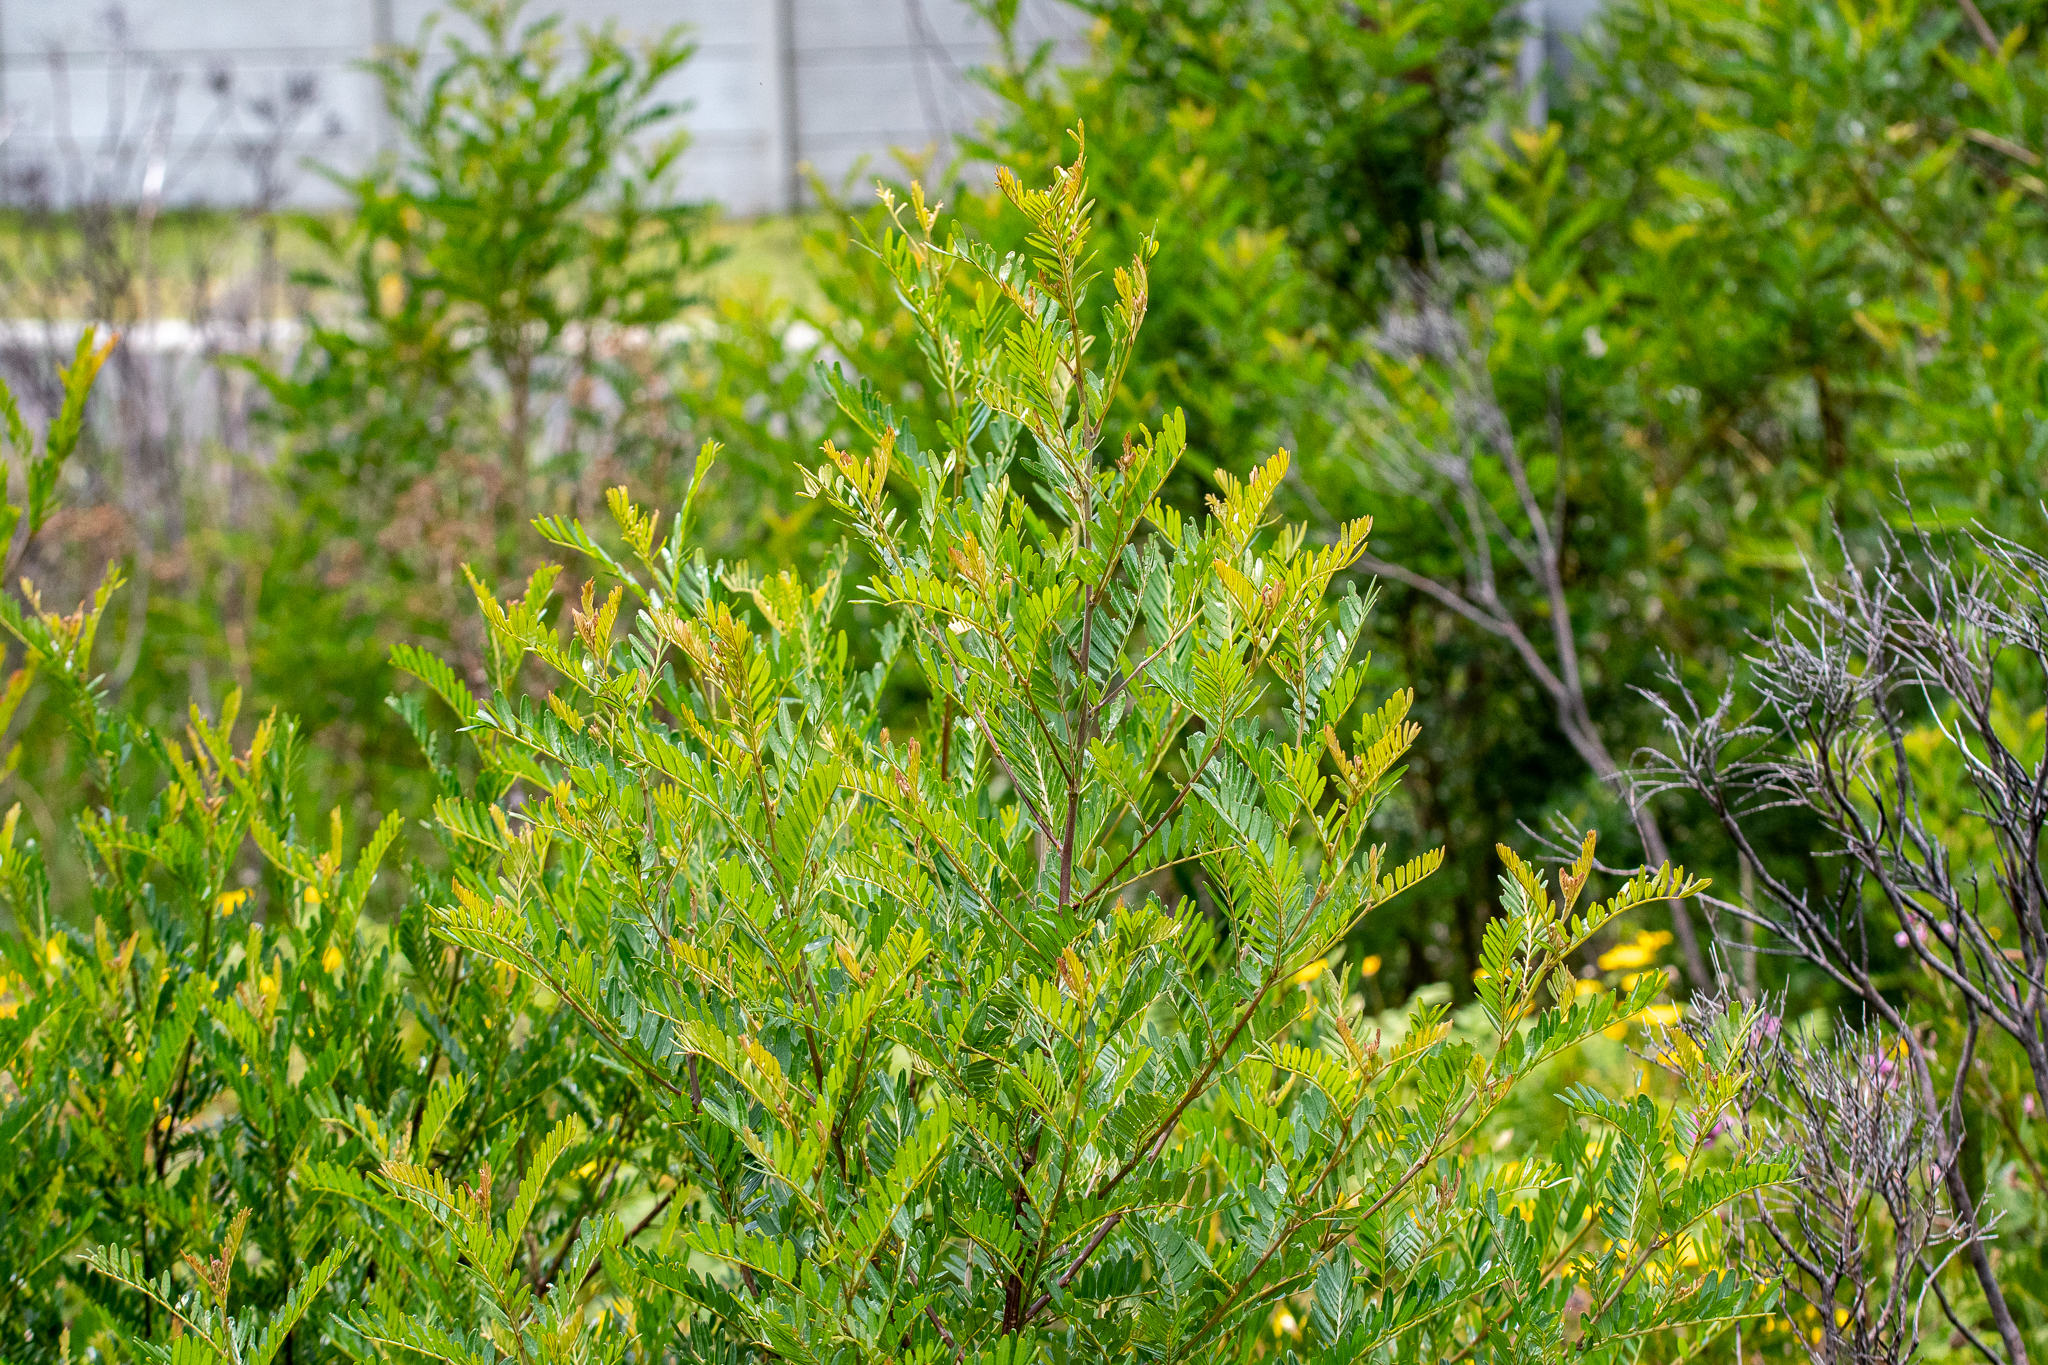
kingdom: Plantae
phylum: Tracheophyta
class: Magnoliopsida
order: Fabales
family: Fabaceae
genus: Virgilia
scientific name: Virgilia oroboides
